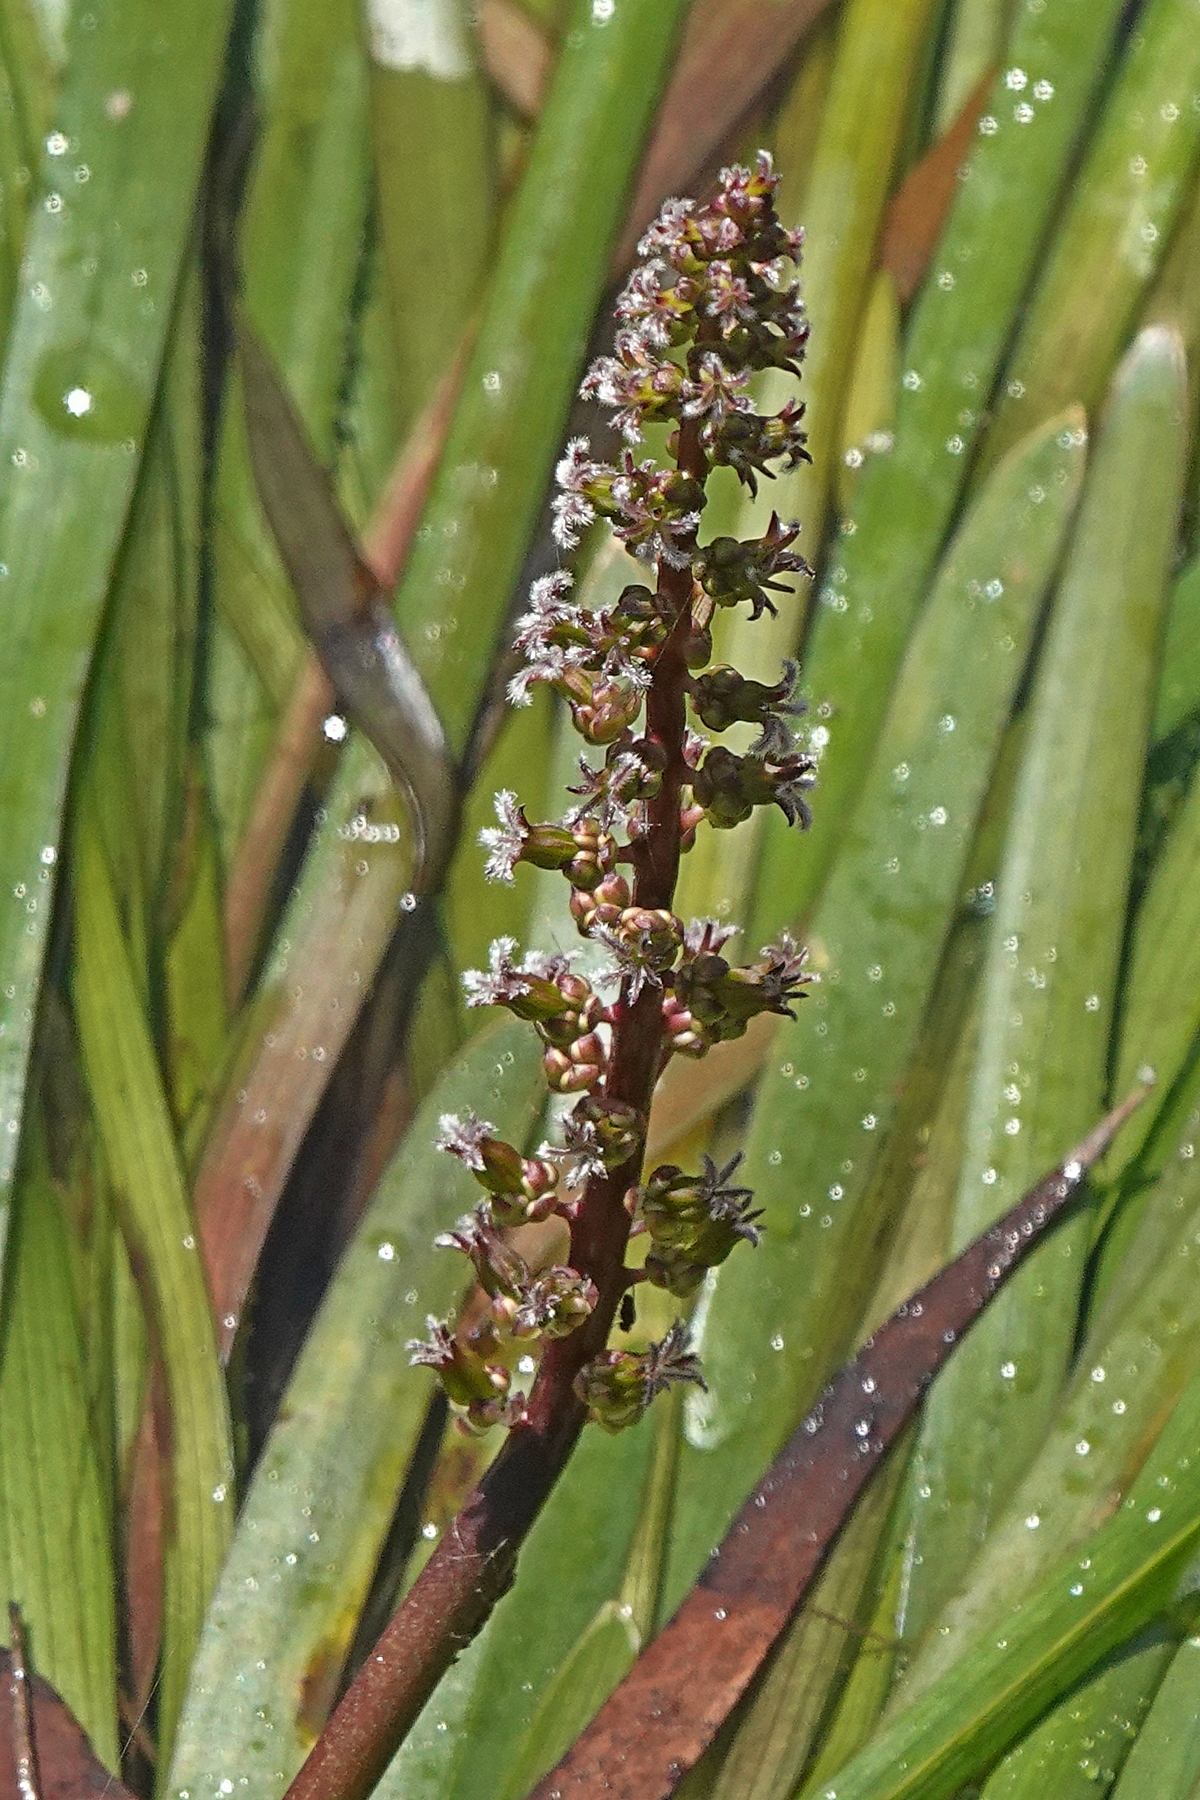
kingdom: Plantae
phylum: Tracheophyta
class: Liliopsida
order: Alismatales
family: Juncaginaceae
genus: Cycnogeton
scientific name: Cycnogeton rheophilum
